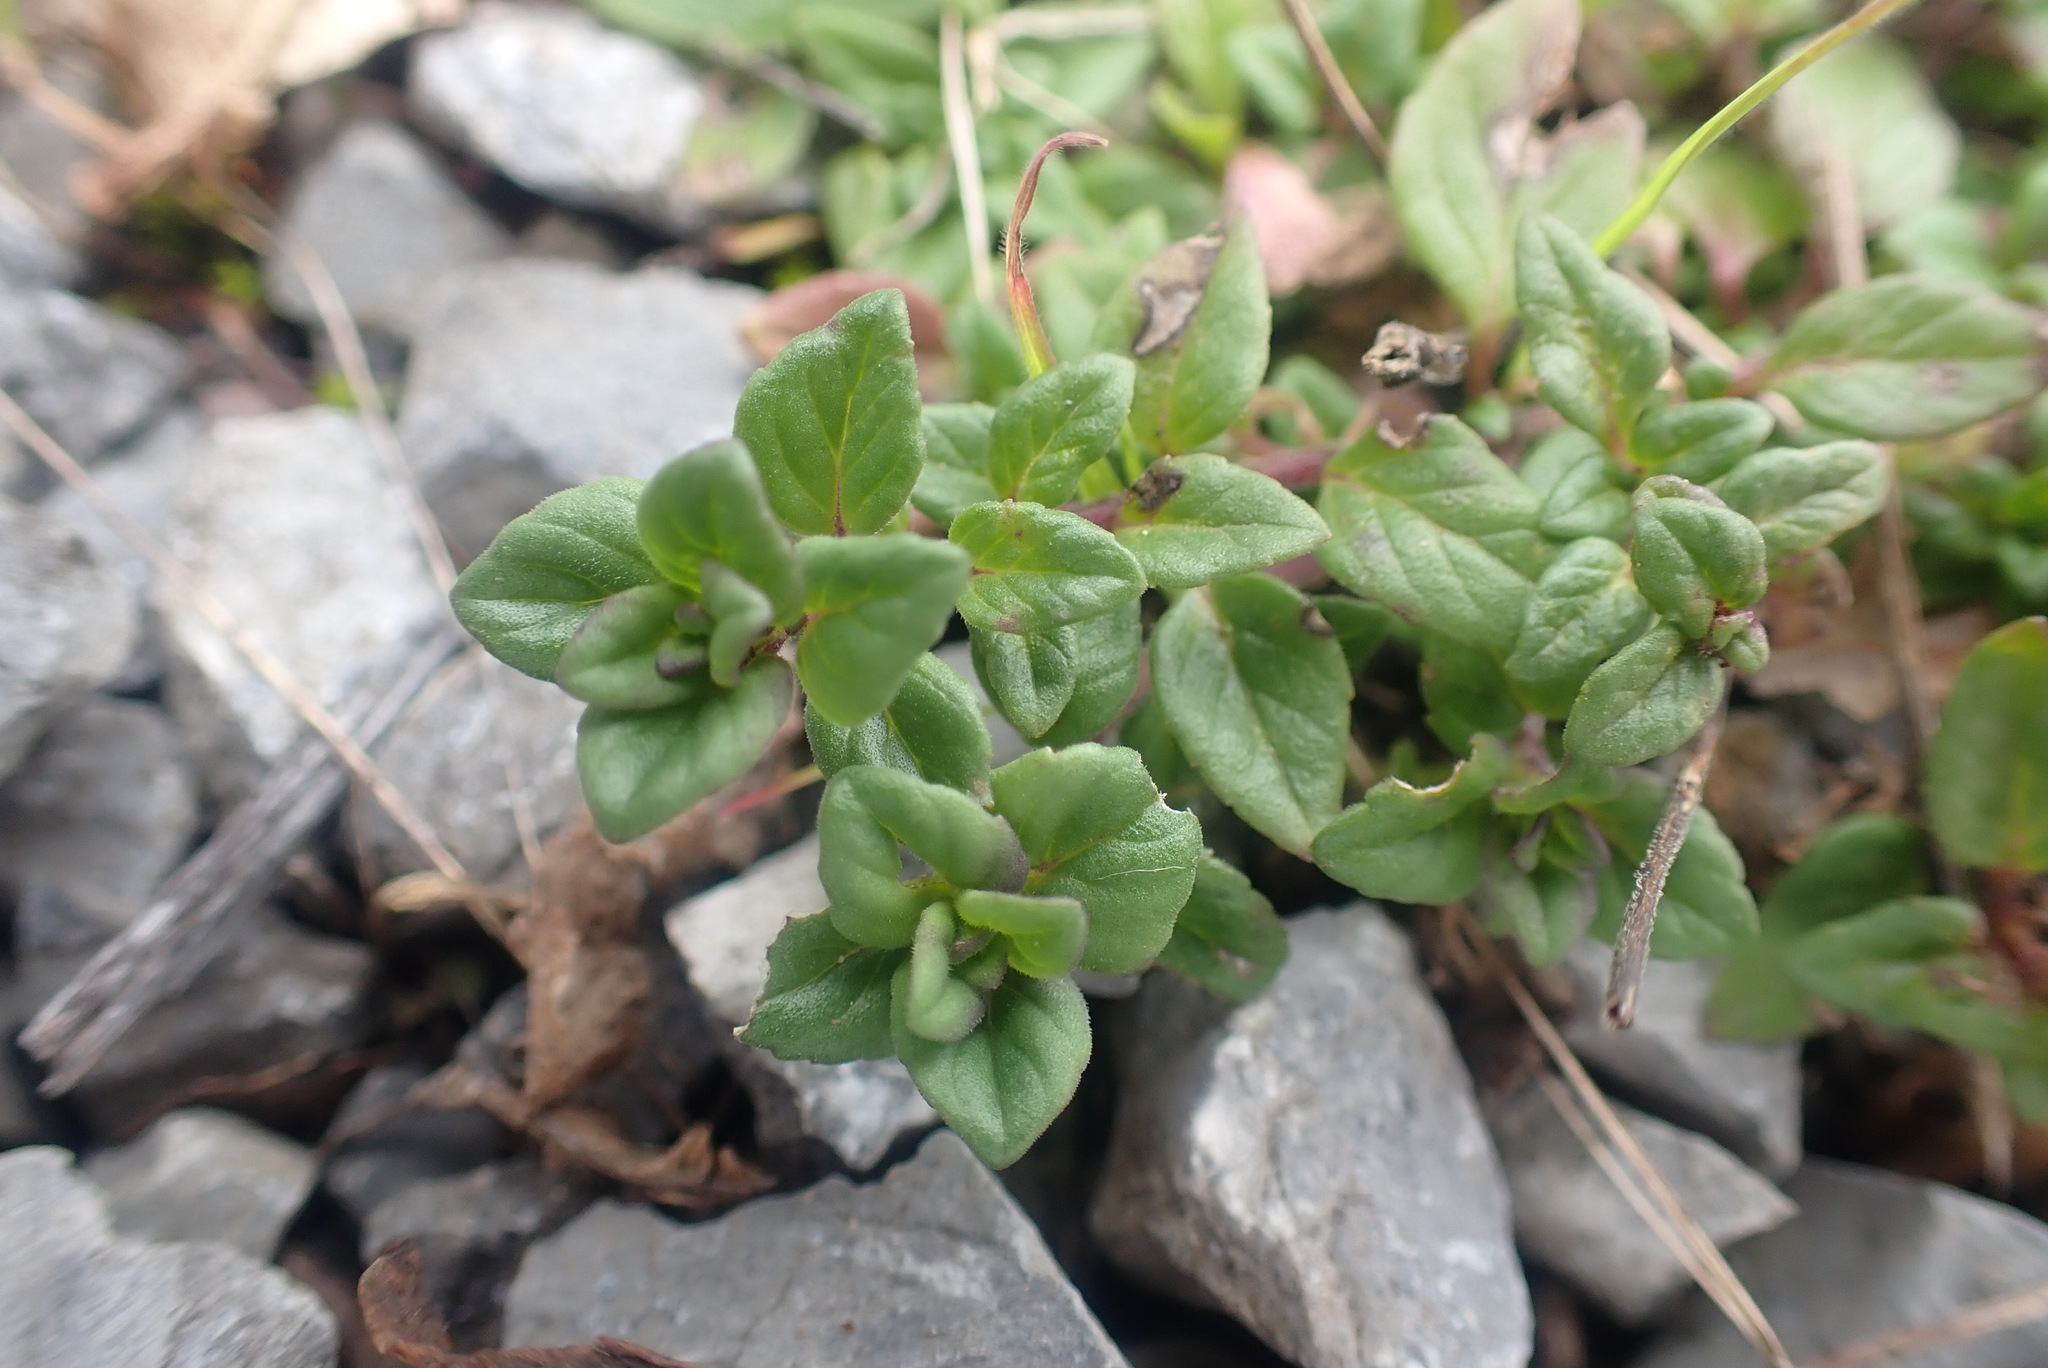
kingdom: Plantae
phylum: Tracheophyta
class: Magnoliopsida
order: Lamiales
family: Lamiaceae
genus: Clinopodium
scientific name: Clinopodium acinos
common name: Basil thyme
